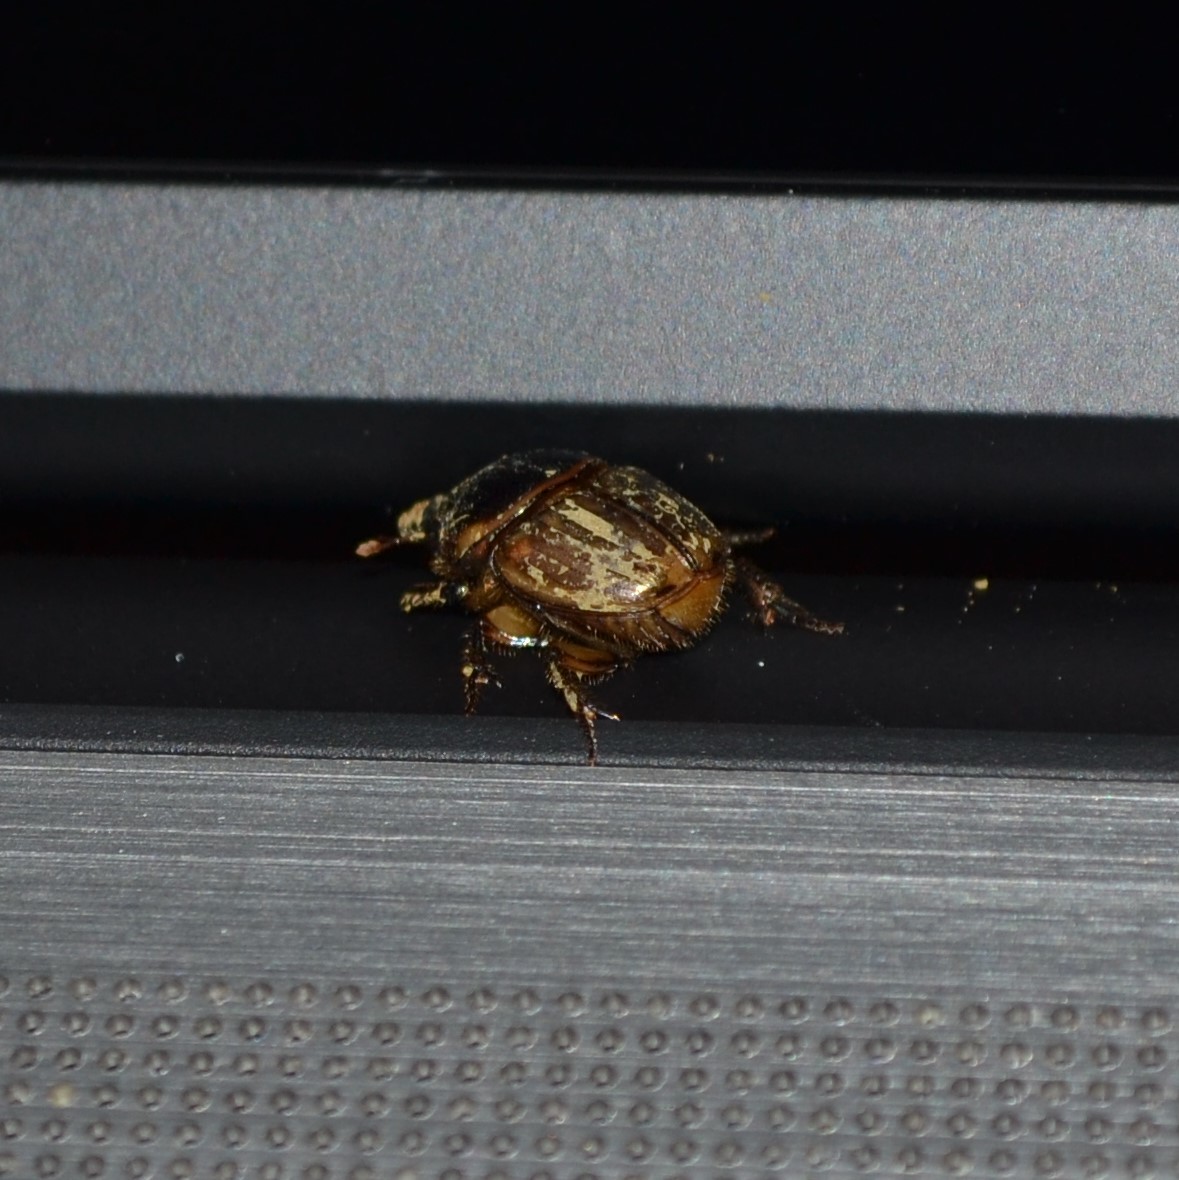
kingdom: Animalia
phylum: Arthropoda
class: Insecta
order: Coleoptera
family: Scarabaeidae
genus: Digitonthophagus
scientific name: Digitonthophagus gazella
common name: Brown dung beetle
